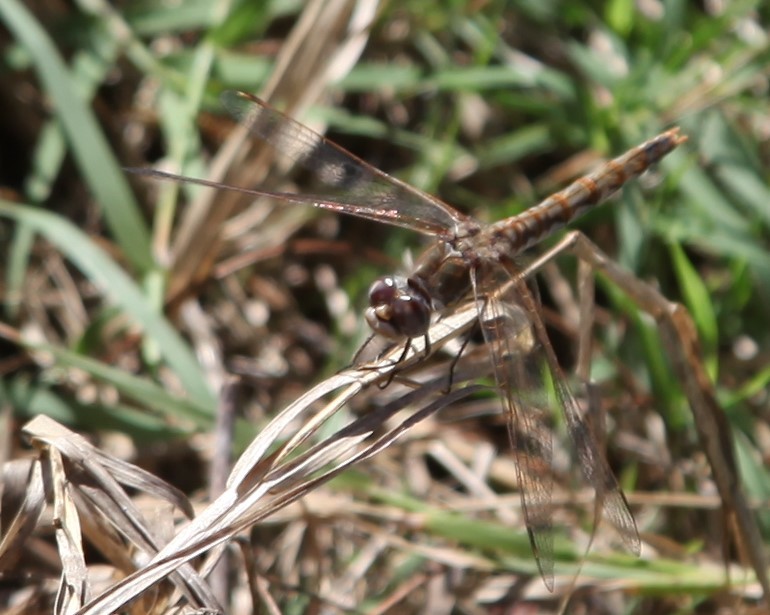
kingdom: Animalia
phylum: Arthropoda
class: Insecta
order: Odonata
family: Libellulidae
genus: Sympetrum
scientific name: Sympetrum corruptum
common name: Variegated meadowhawk
